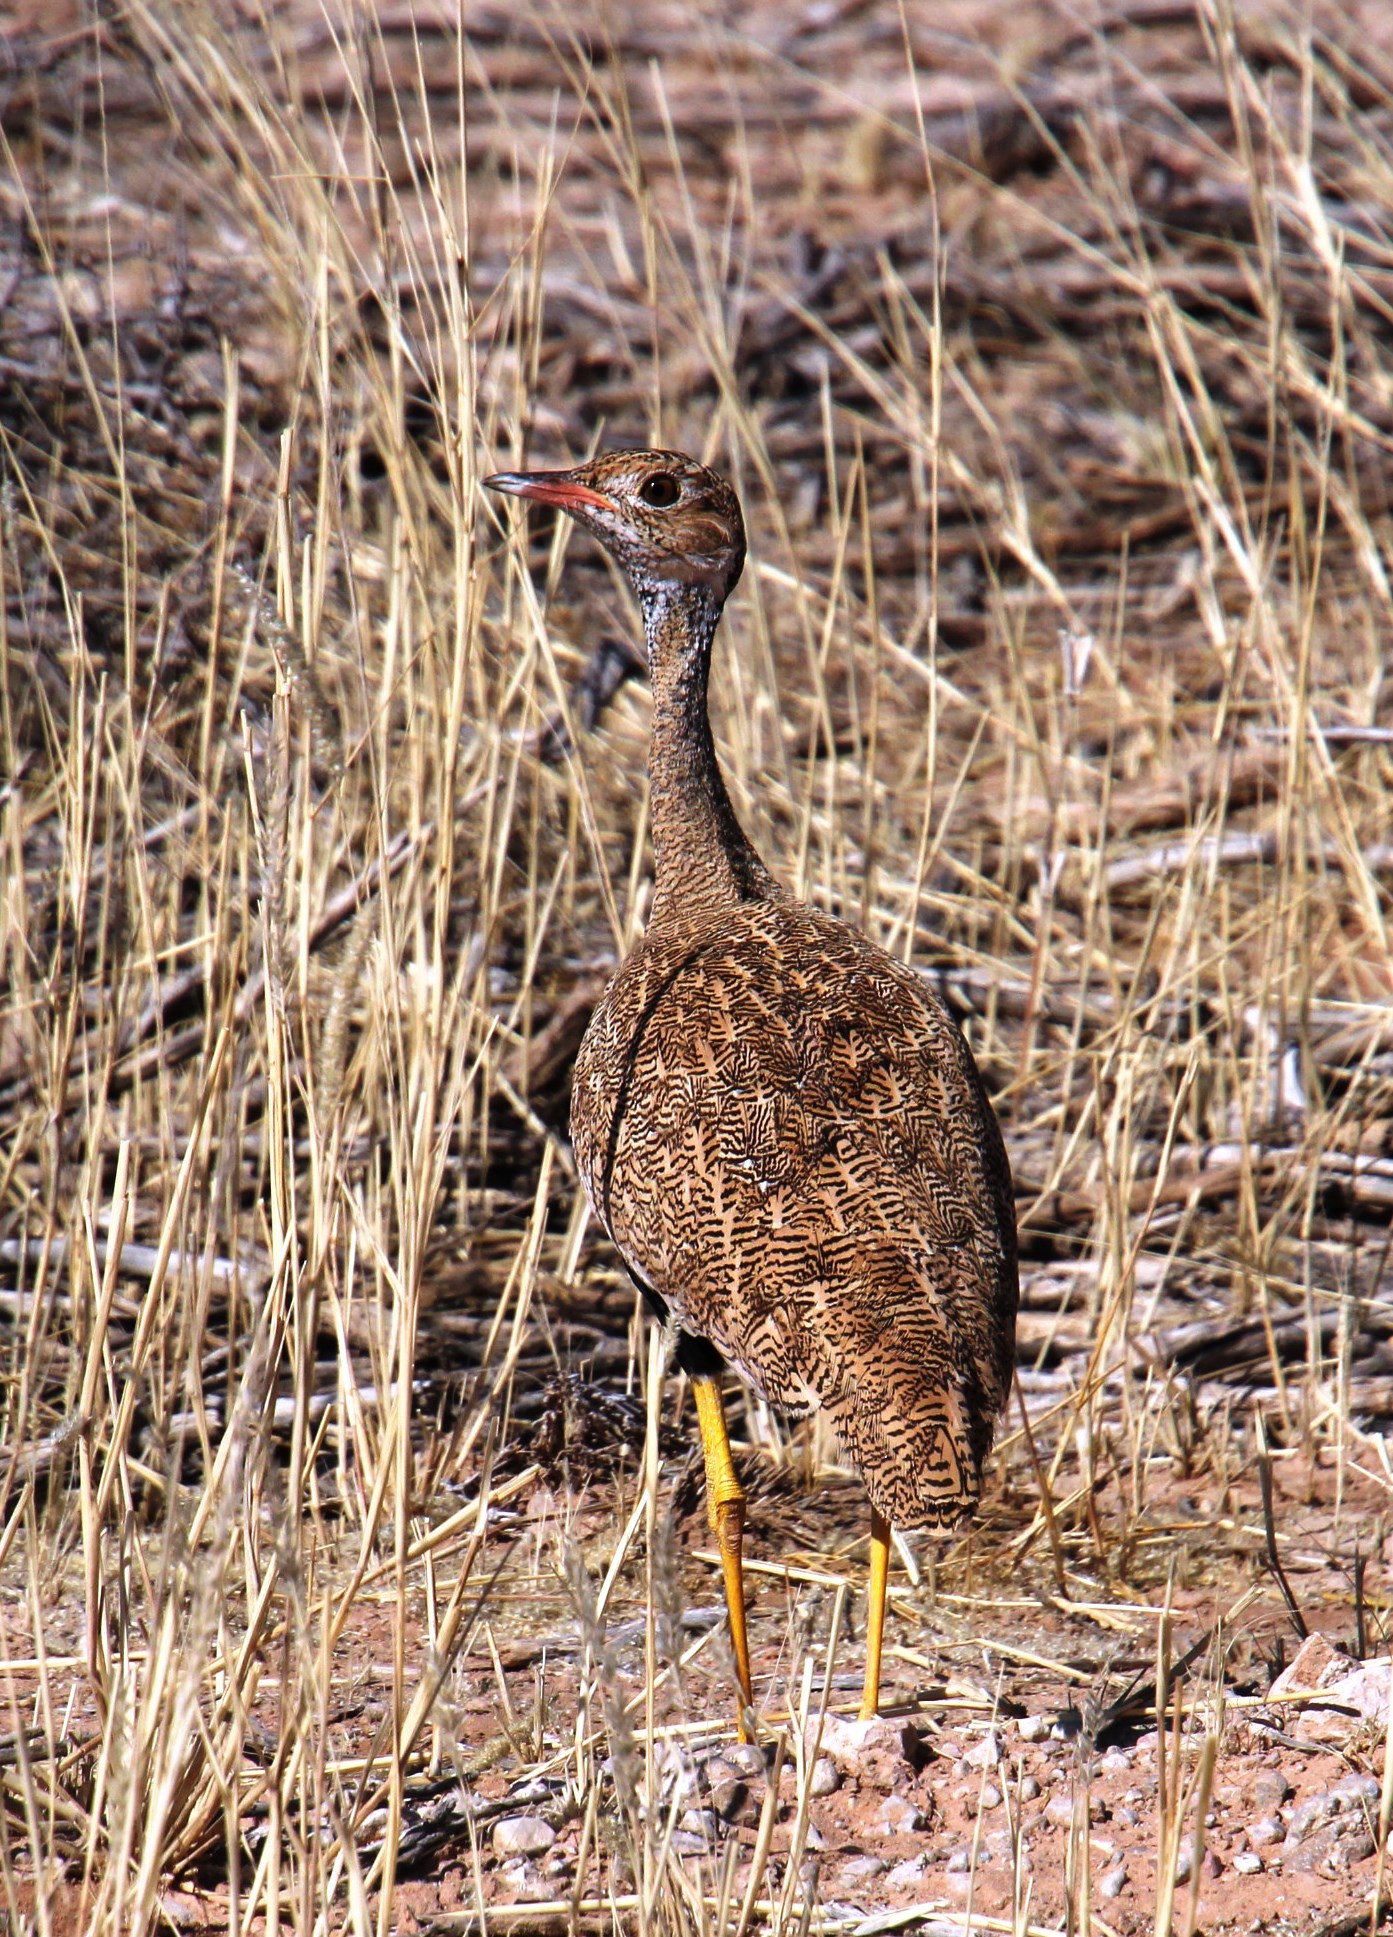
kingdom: Animalia
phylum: Chordata
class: Aves
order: Otidiformes
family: Otididae
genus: Afrotis
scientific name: Afrotis afraoides
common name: Northern black korhaan
